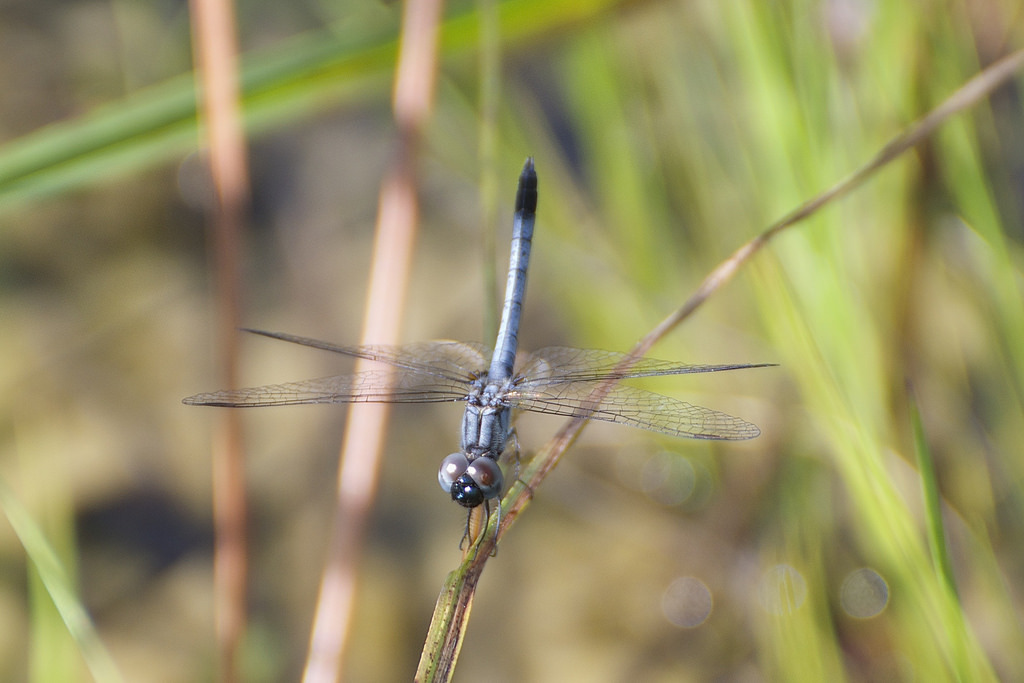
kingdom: Animalia
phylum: Arthropoda
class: Insecta
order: Odonata
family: Libellulidae
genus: Erythrodiplax
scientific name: Erythrodiplax minuscula
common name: Little blue dragonlet
